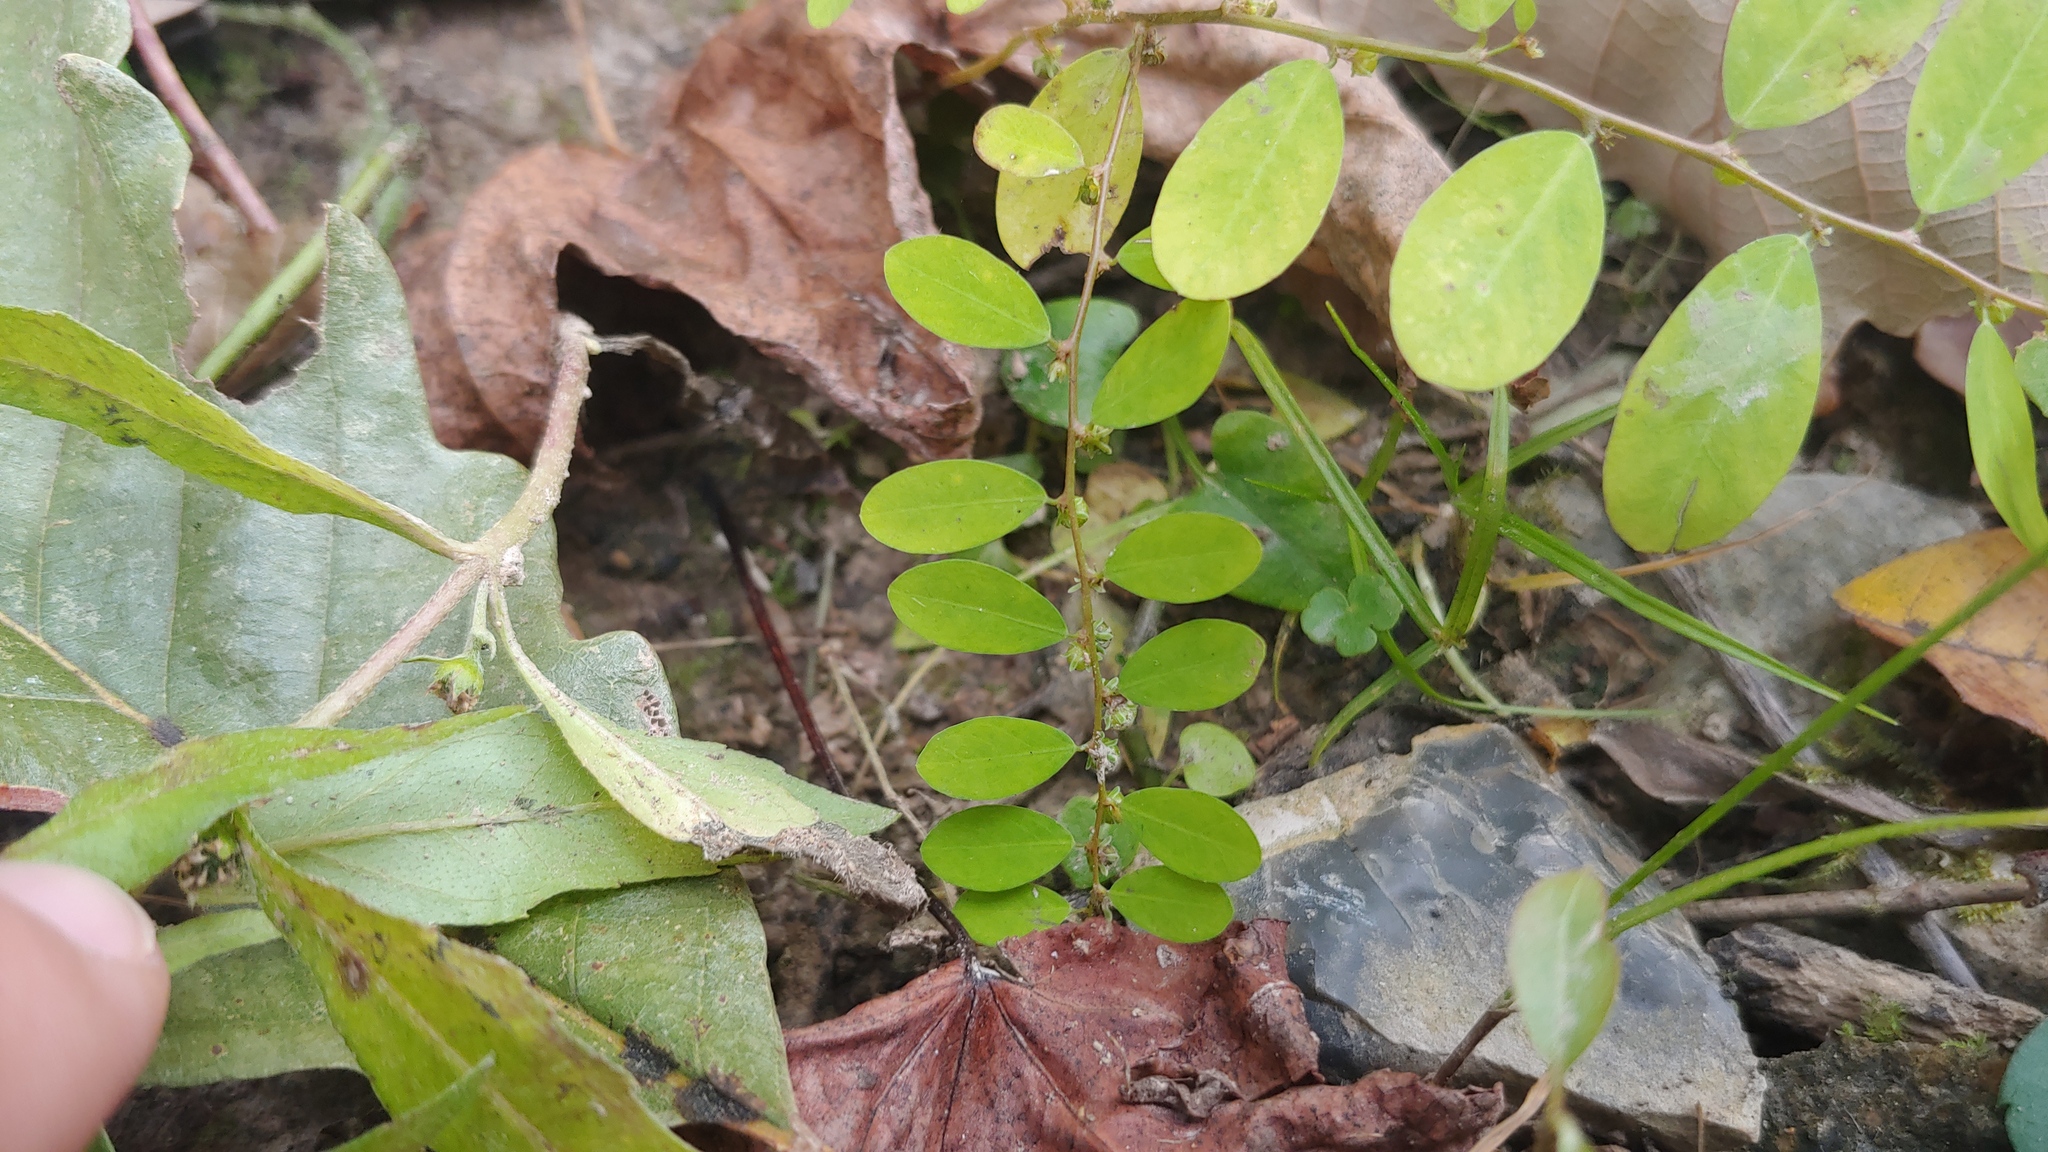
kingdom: Plantae
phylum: Tracheophyta
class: Magnoliopsida
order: Malpighiales
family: Phyllanthaceae
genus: Phyllanthus
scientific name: Phyllanthus caroliniensis
